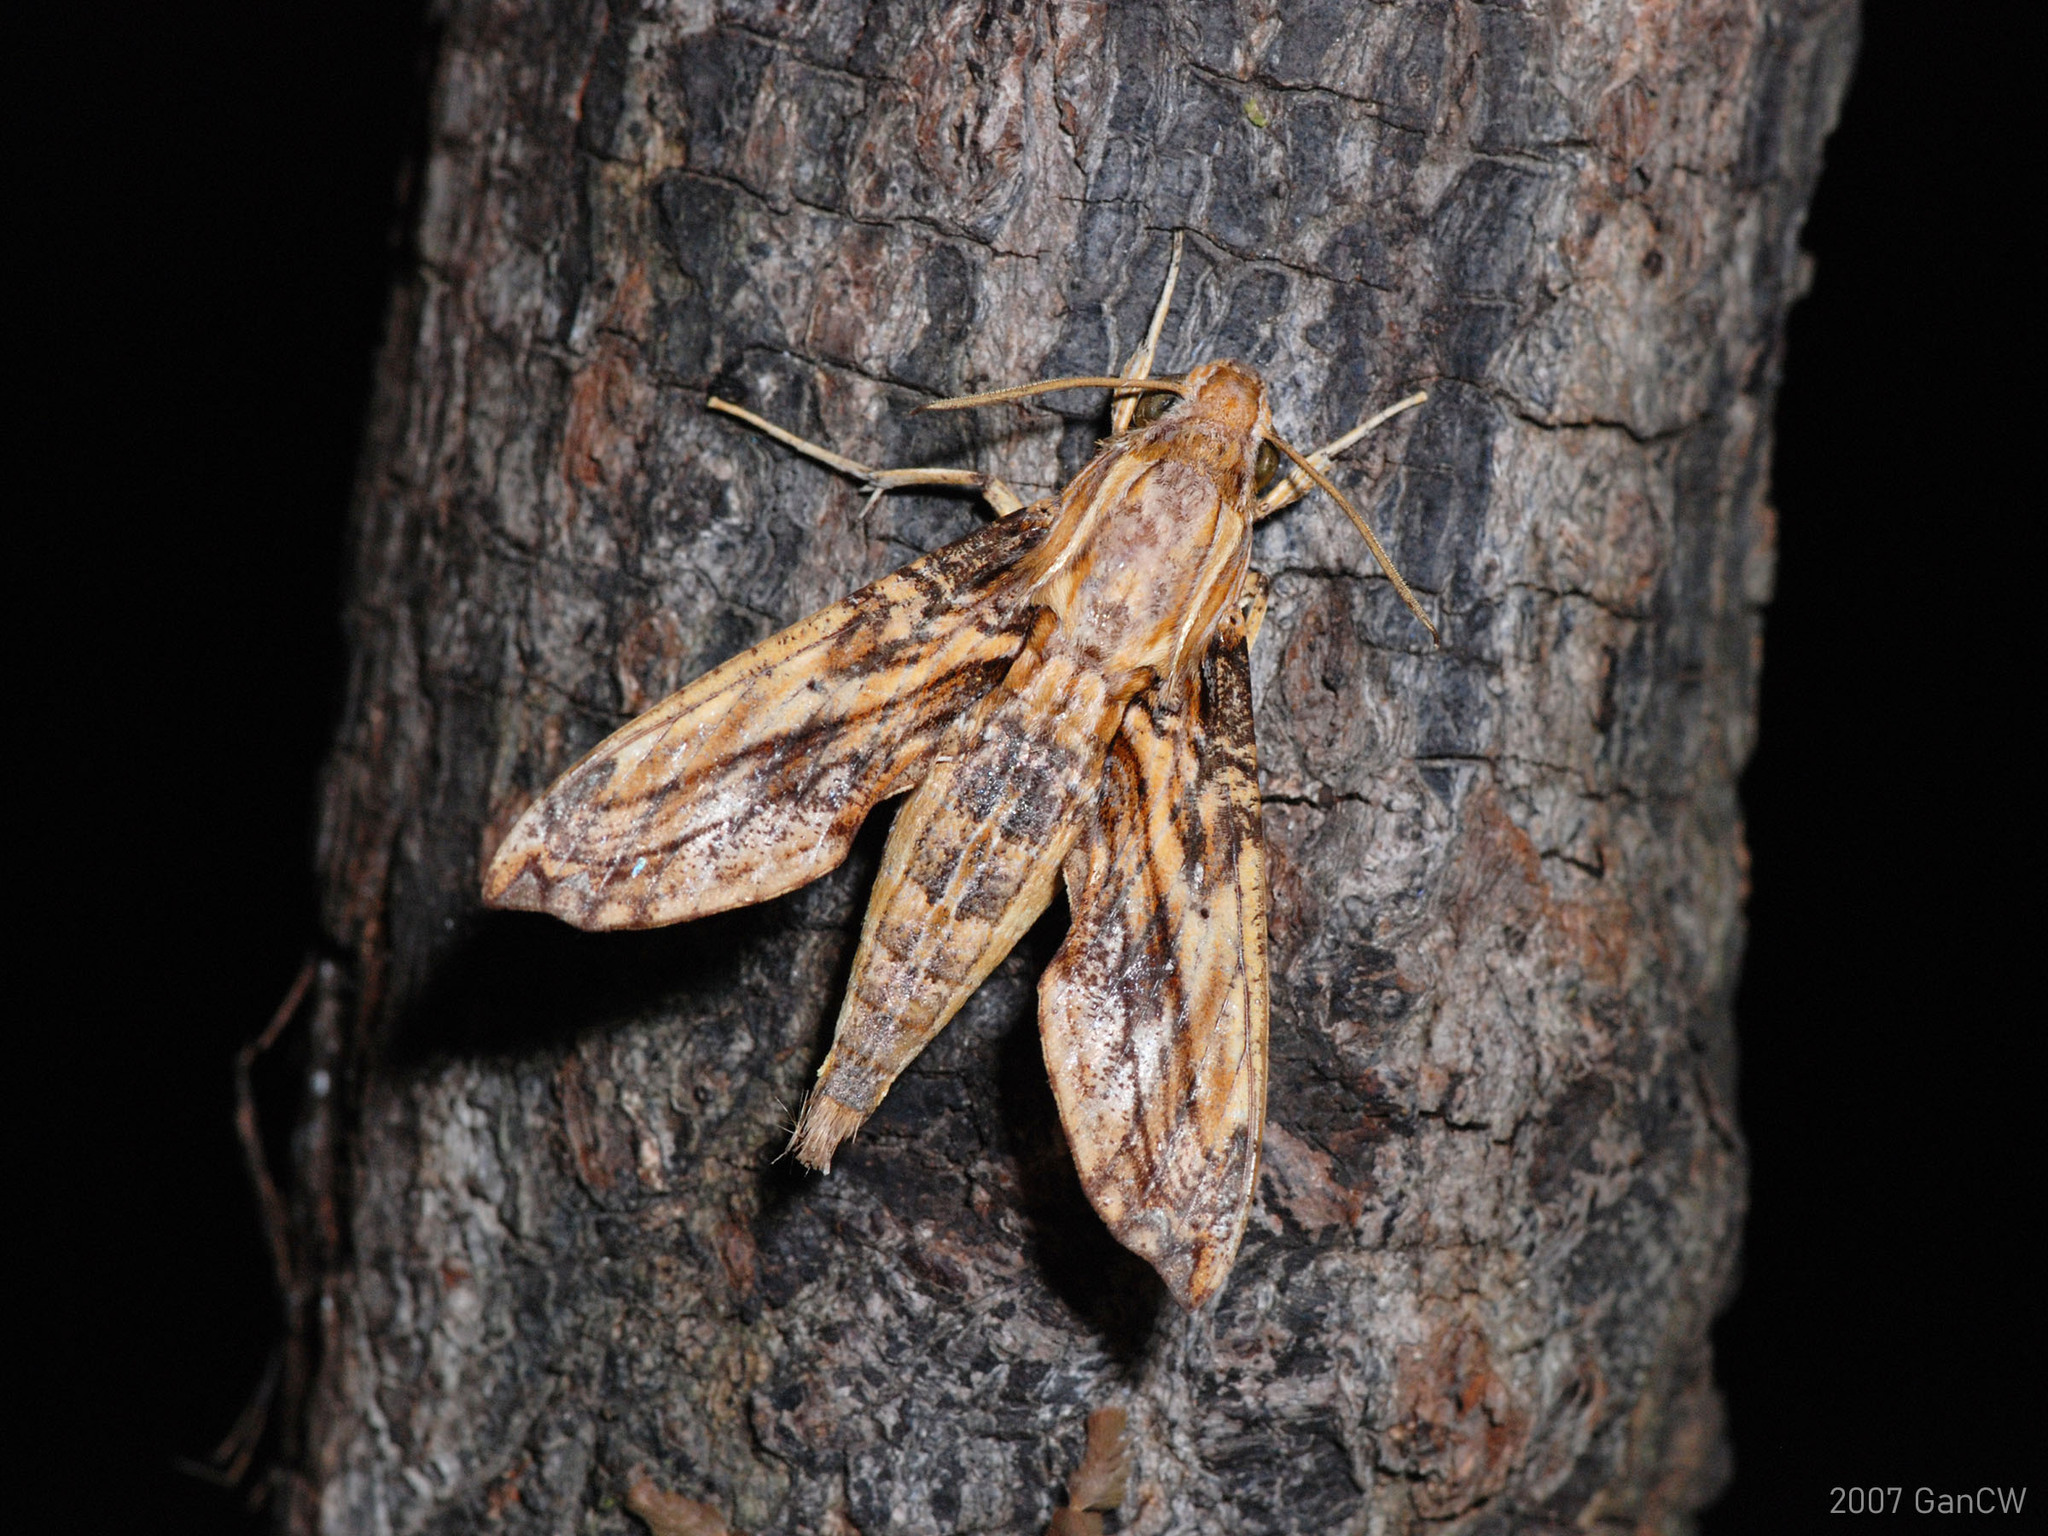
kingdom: Animalia
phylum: Arthropoda
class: Insecta
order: Lepidoptera
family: Sphingidae
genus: Eupanacra
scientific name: Eupanacra variolosa
